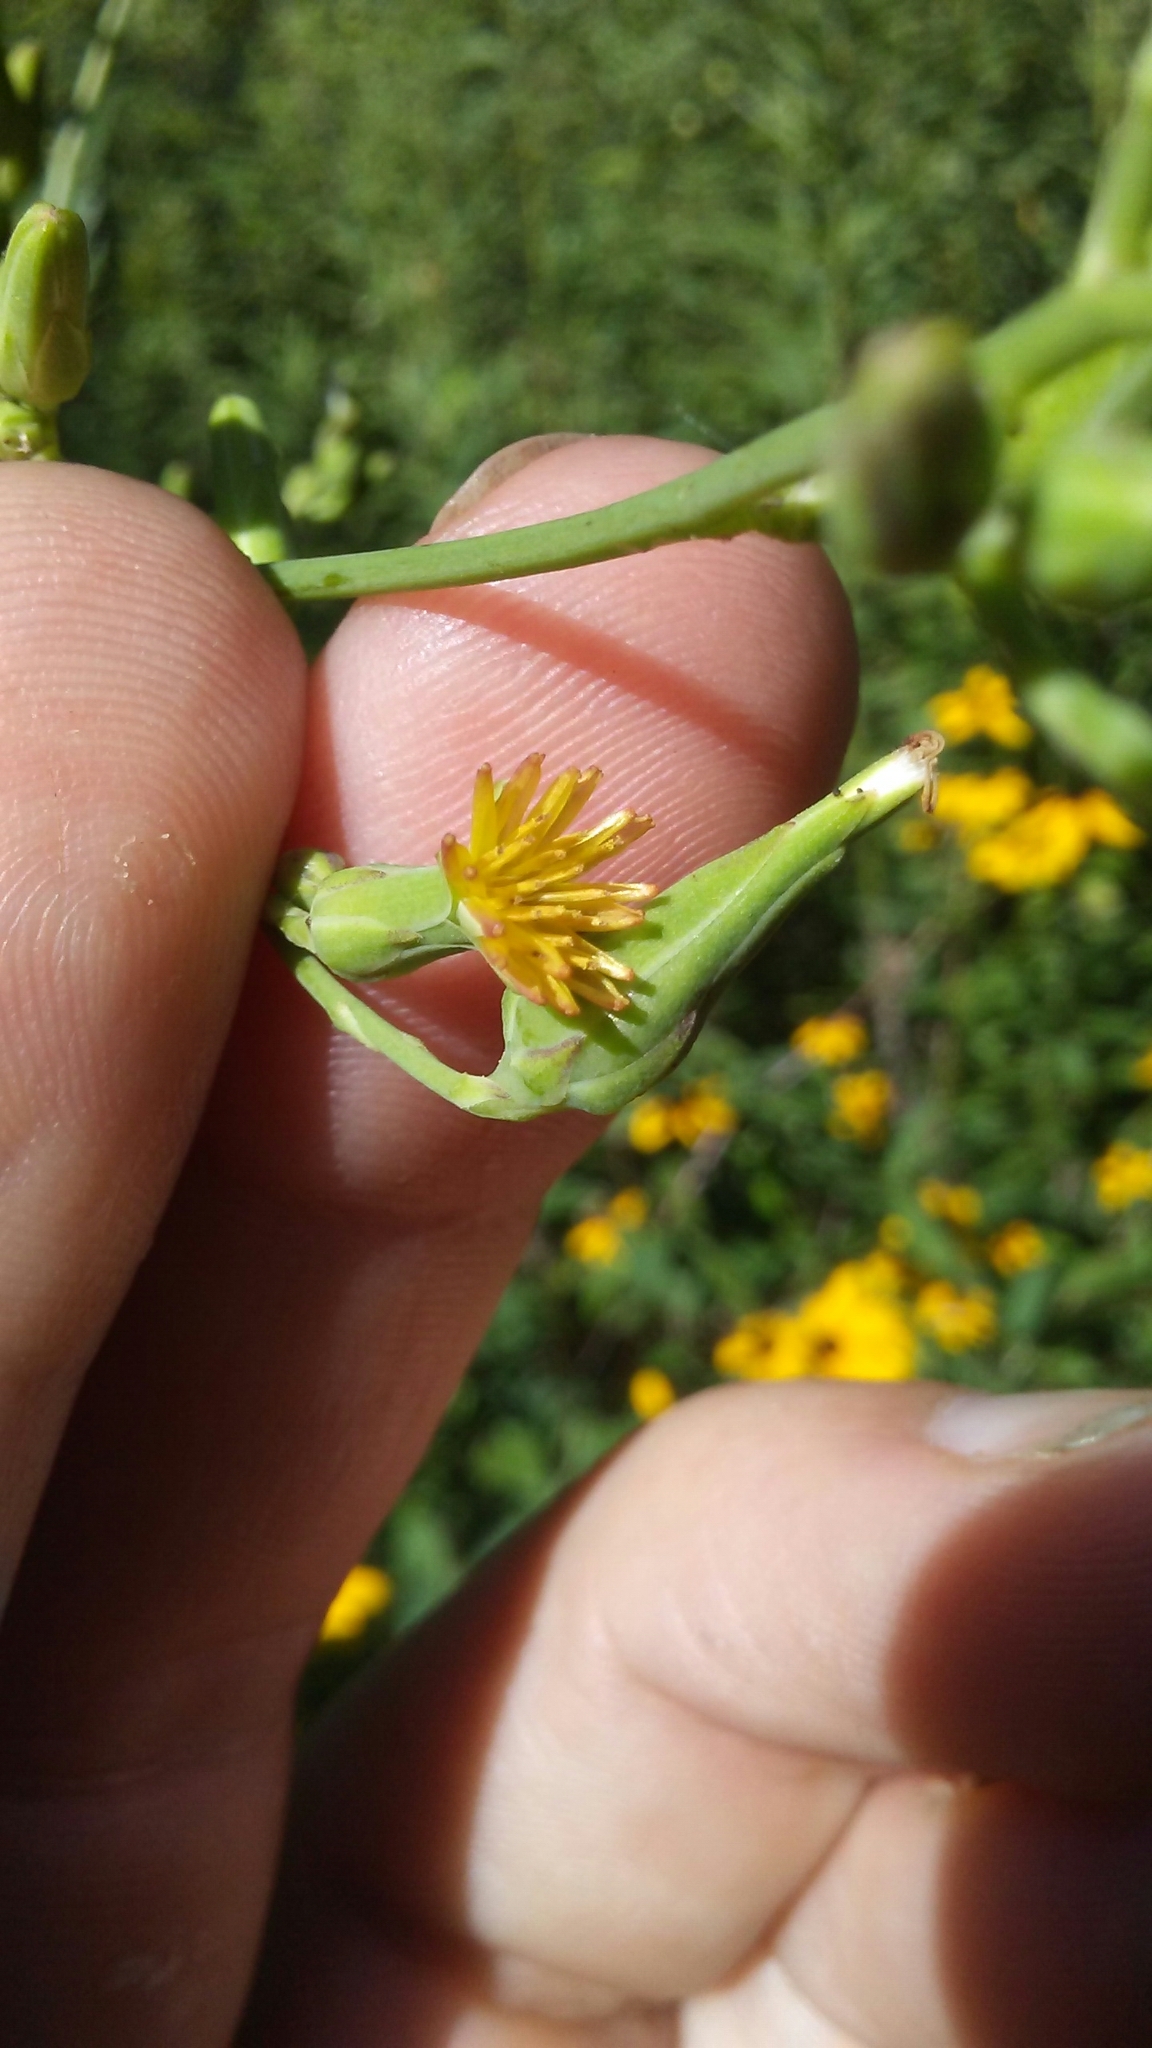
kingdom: Plantae
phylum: Tracheophyta
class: Magnoliopsida
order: Asterales
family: Asteraceae
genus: Lactuca
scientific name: Lactuca canadensis
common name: Canada lettuce
